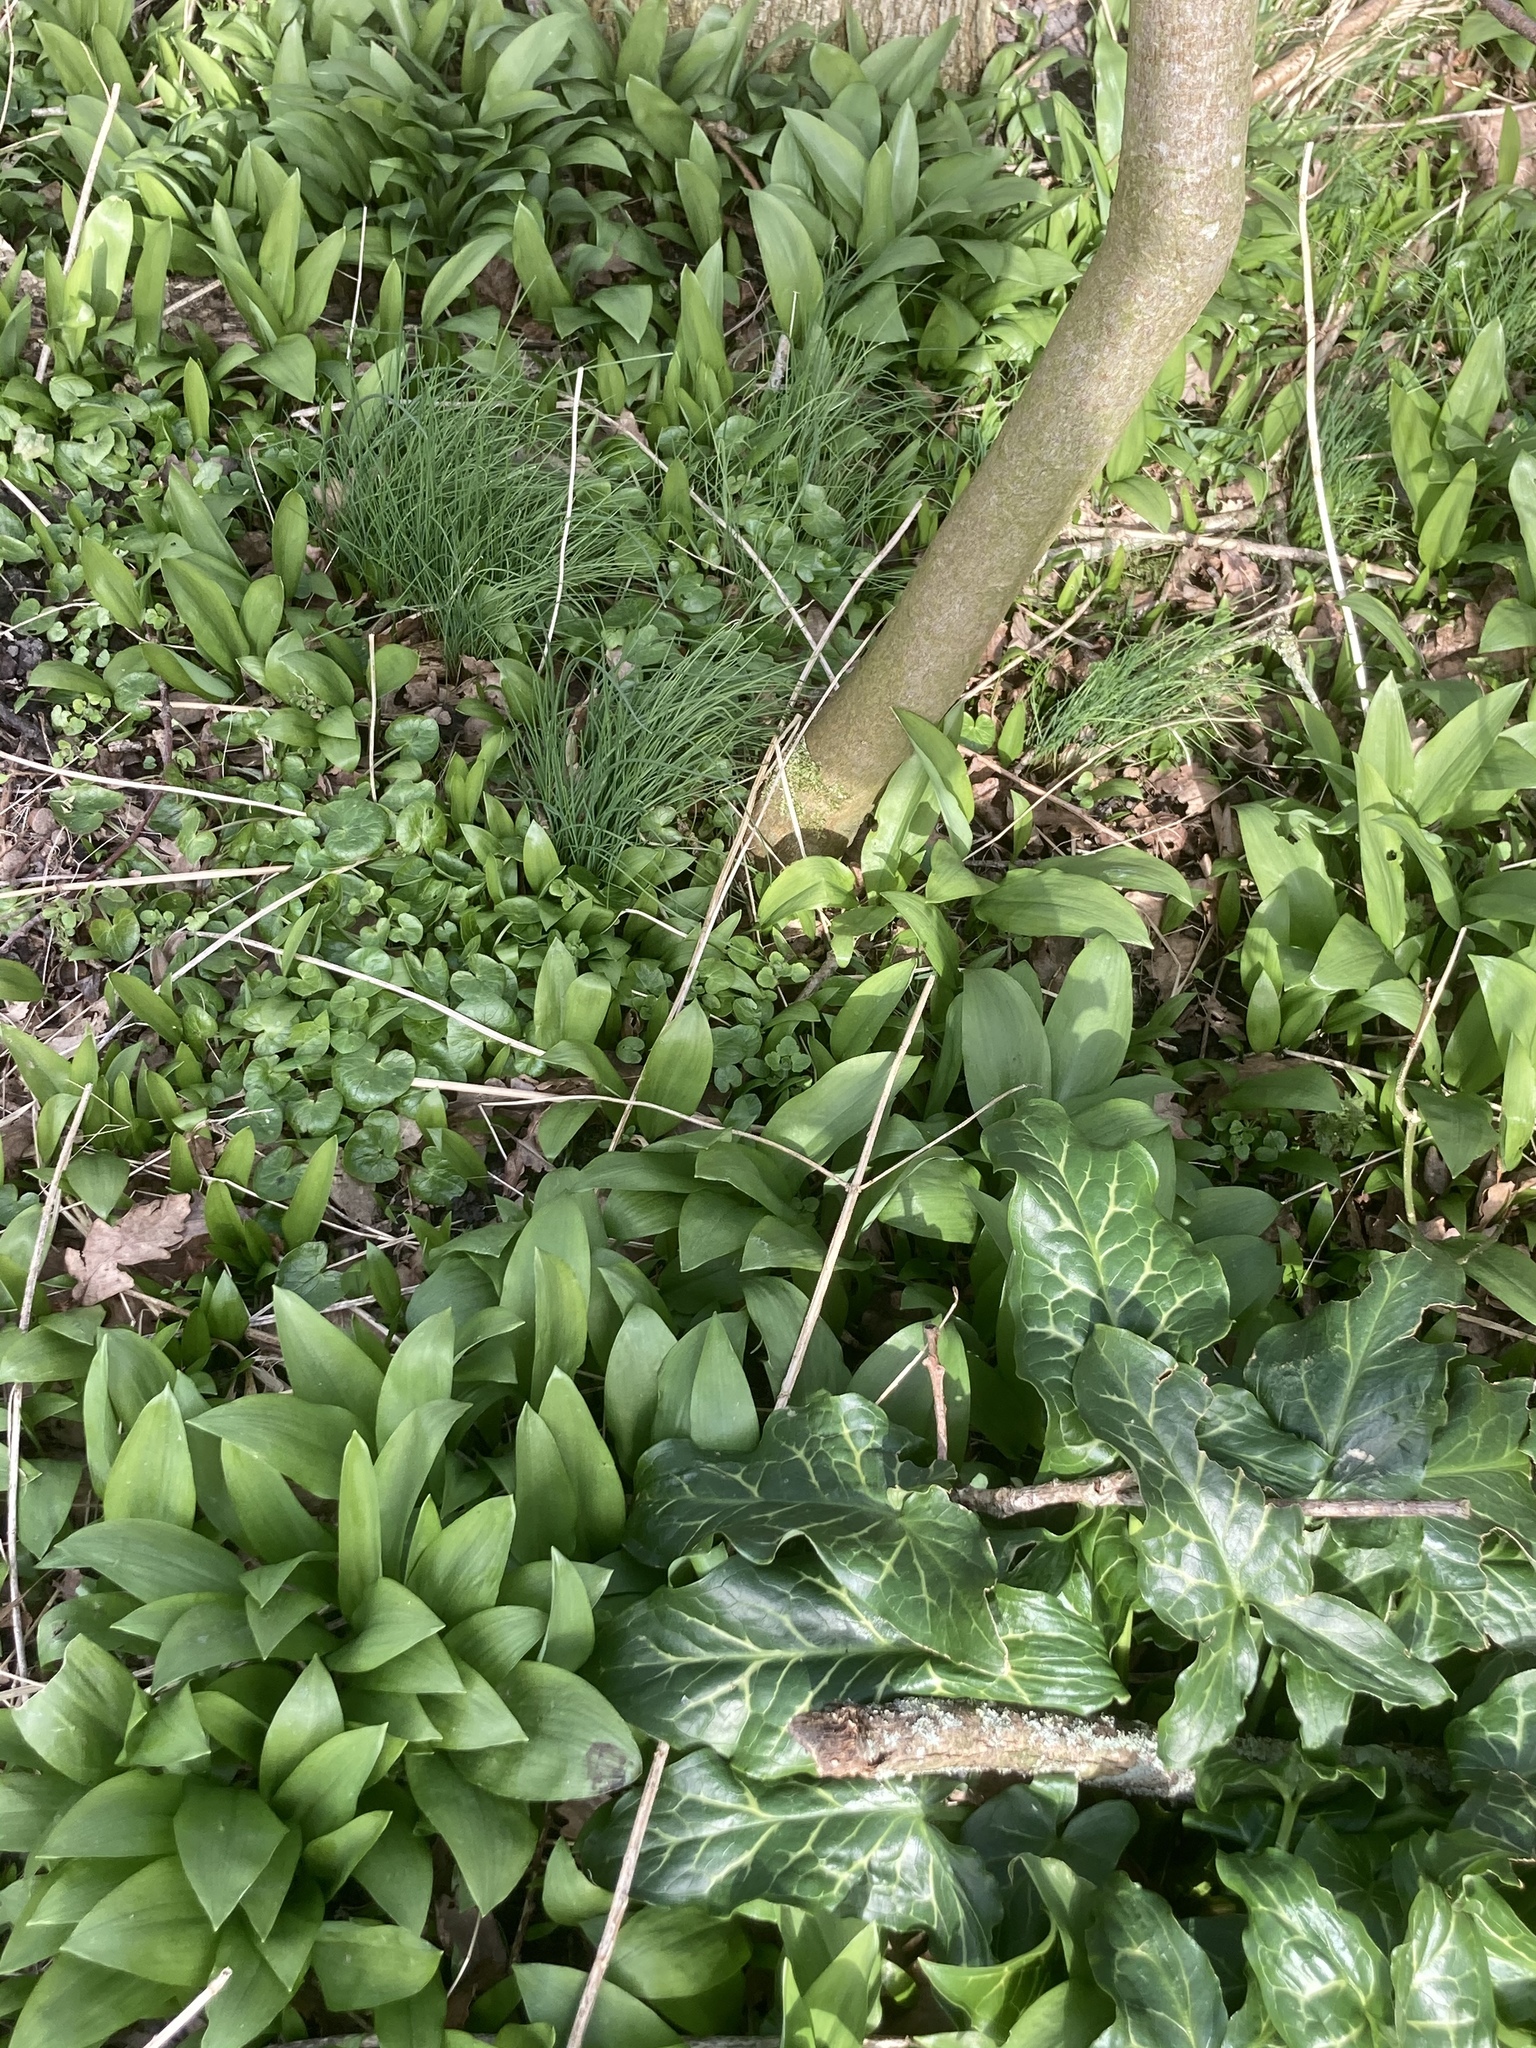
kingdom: Plantae
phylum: Tracheophyta
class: Liliopsida
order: Asparagales
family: Amaryllidaceae
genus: Allium
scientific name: Allium ursinum
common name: Ramsons
